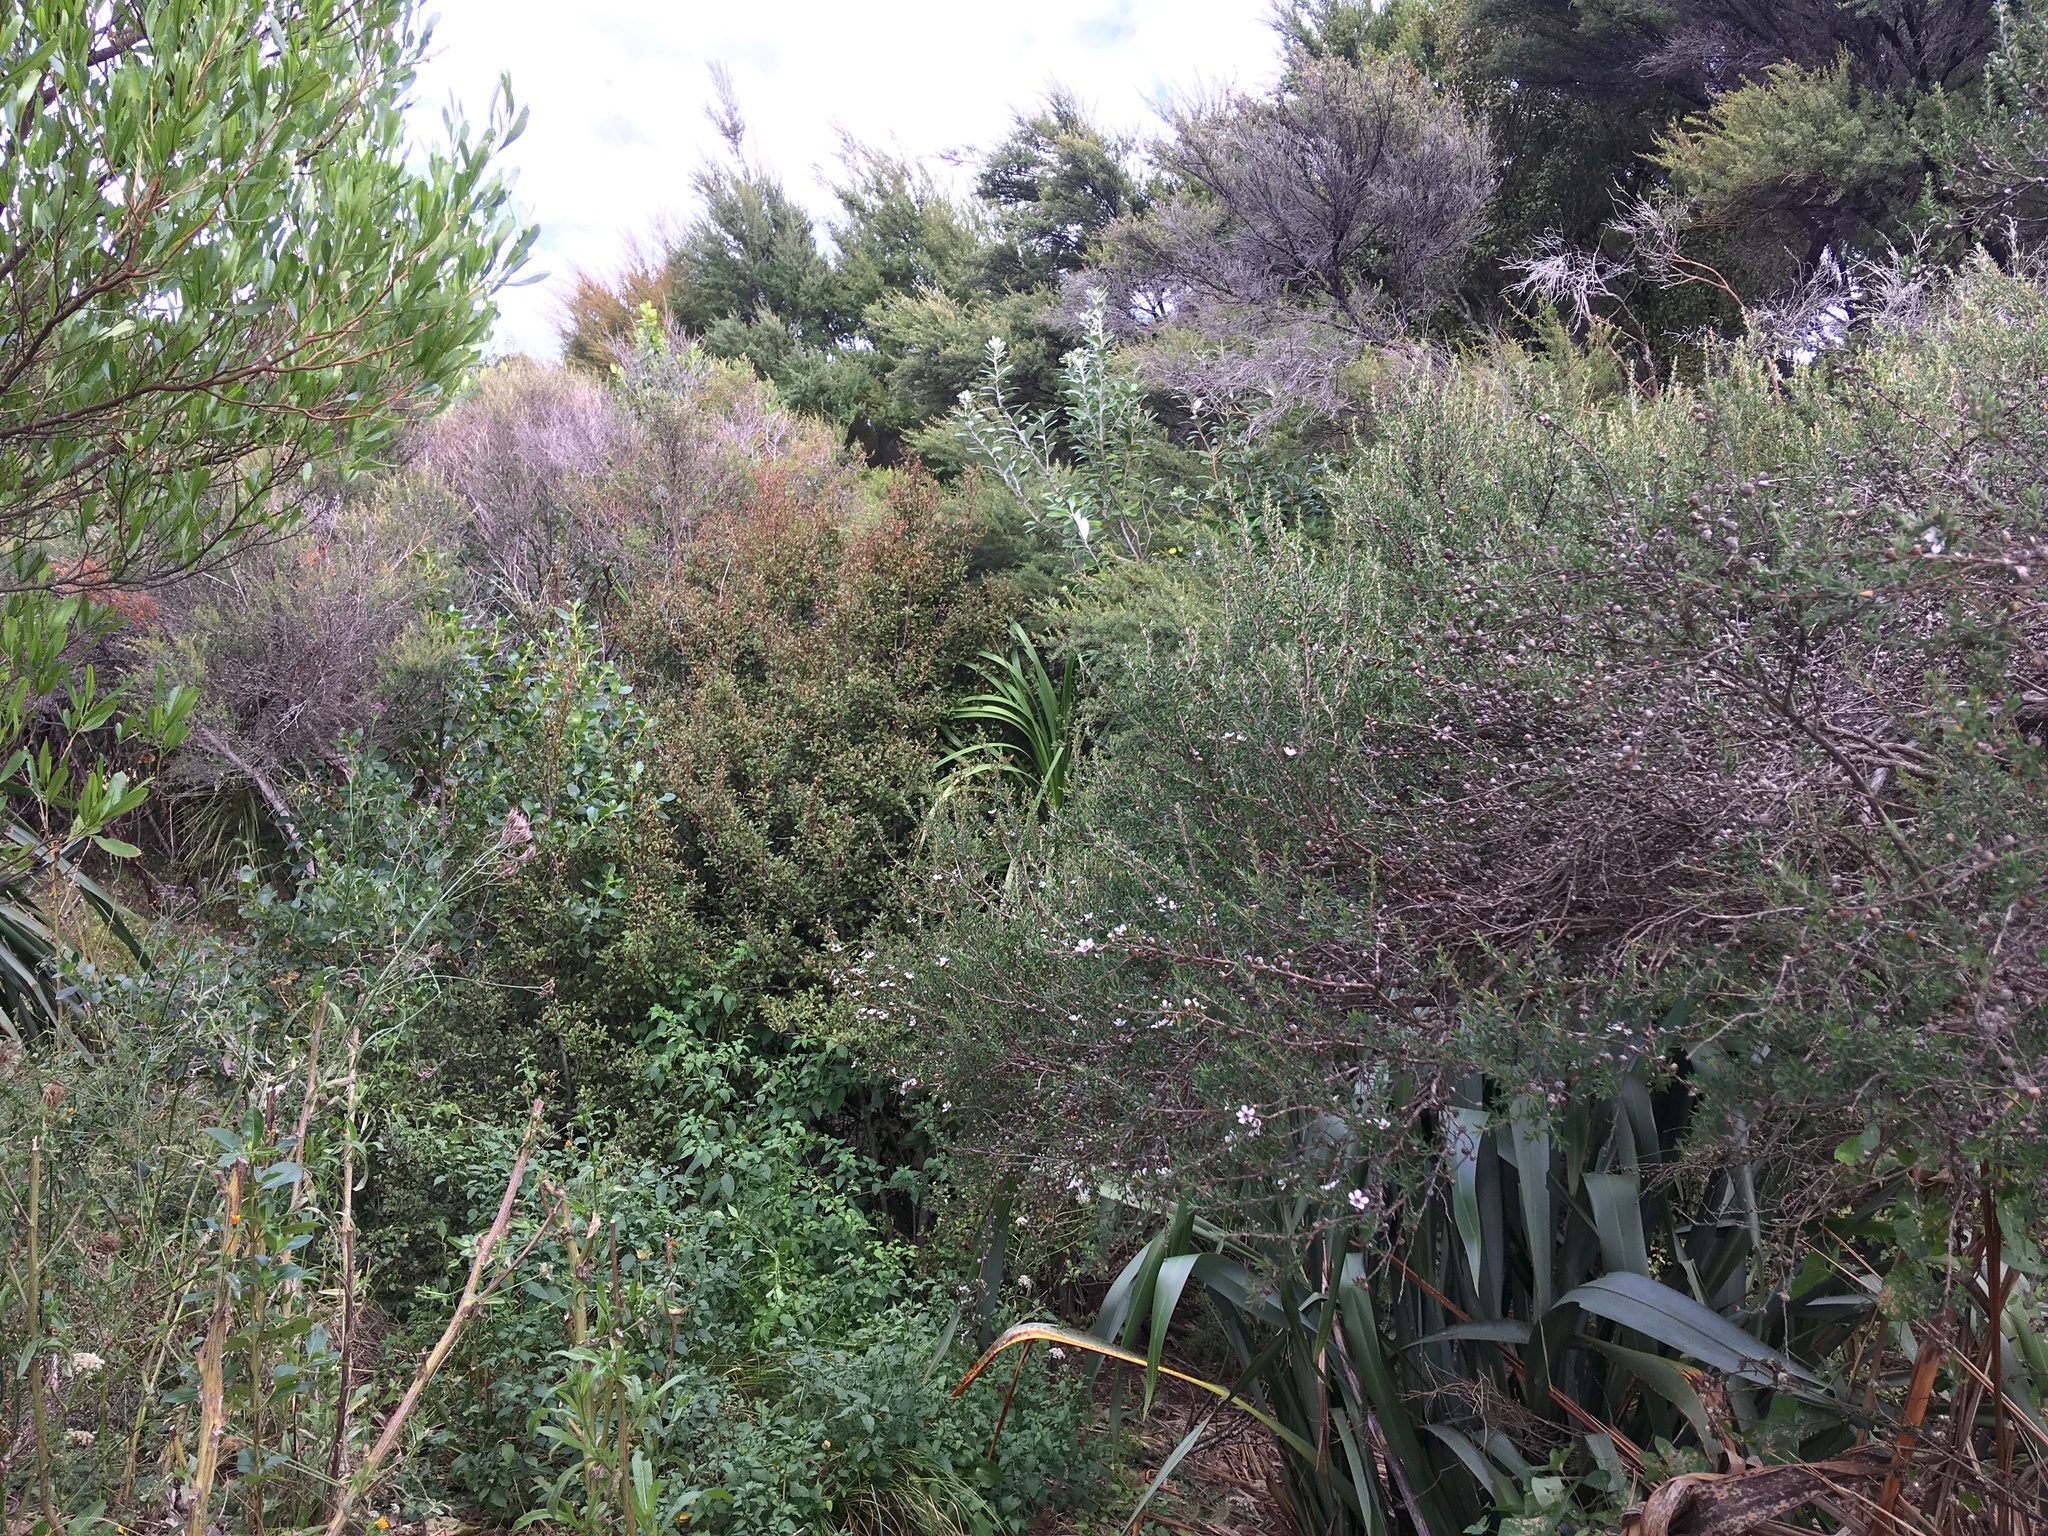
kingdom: Plantae
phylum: Tracheophyta
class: Magnoliopsida
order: Ericales
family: Primulaceae
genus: Myrsine
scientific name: Myrsine australis
